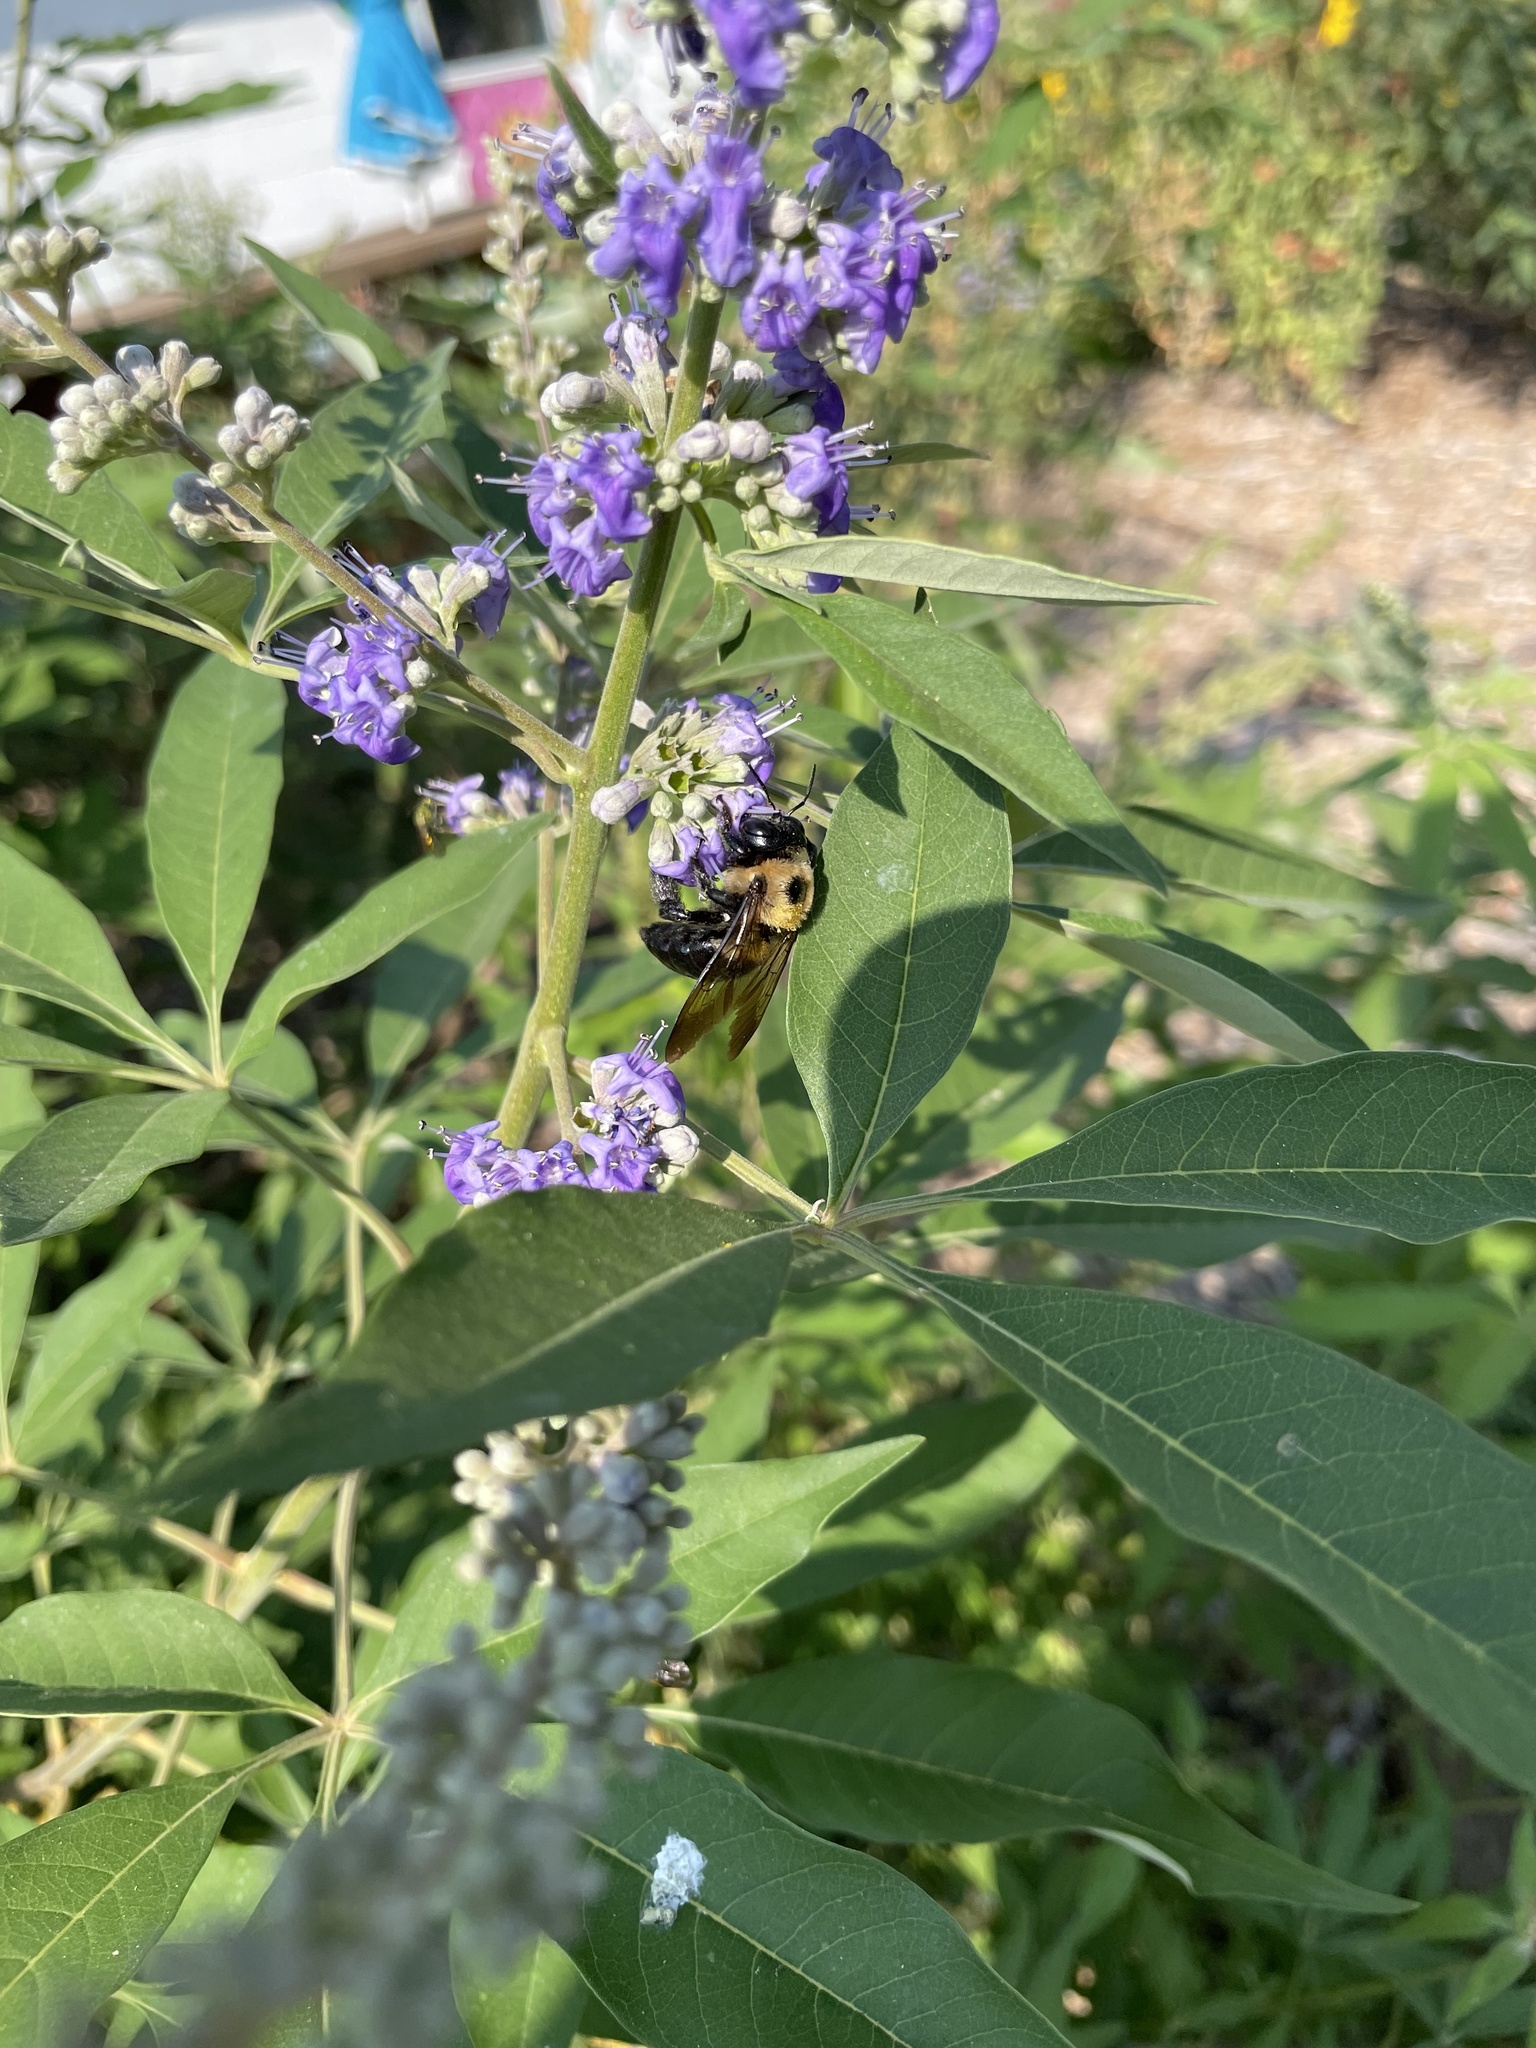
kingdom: Animalia
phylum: Arthropoda
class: Insecta
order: Hymenoptera
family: Apidae
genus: Xylocopa
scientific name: Xylocopa virginica
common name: Carpenter bee
